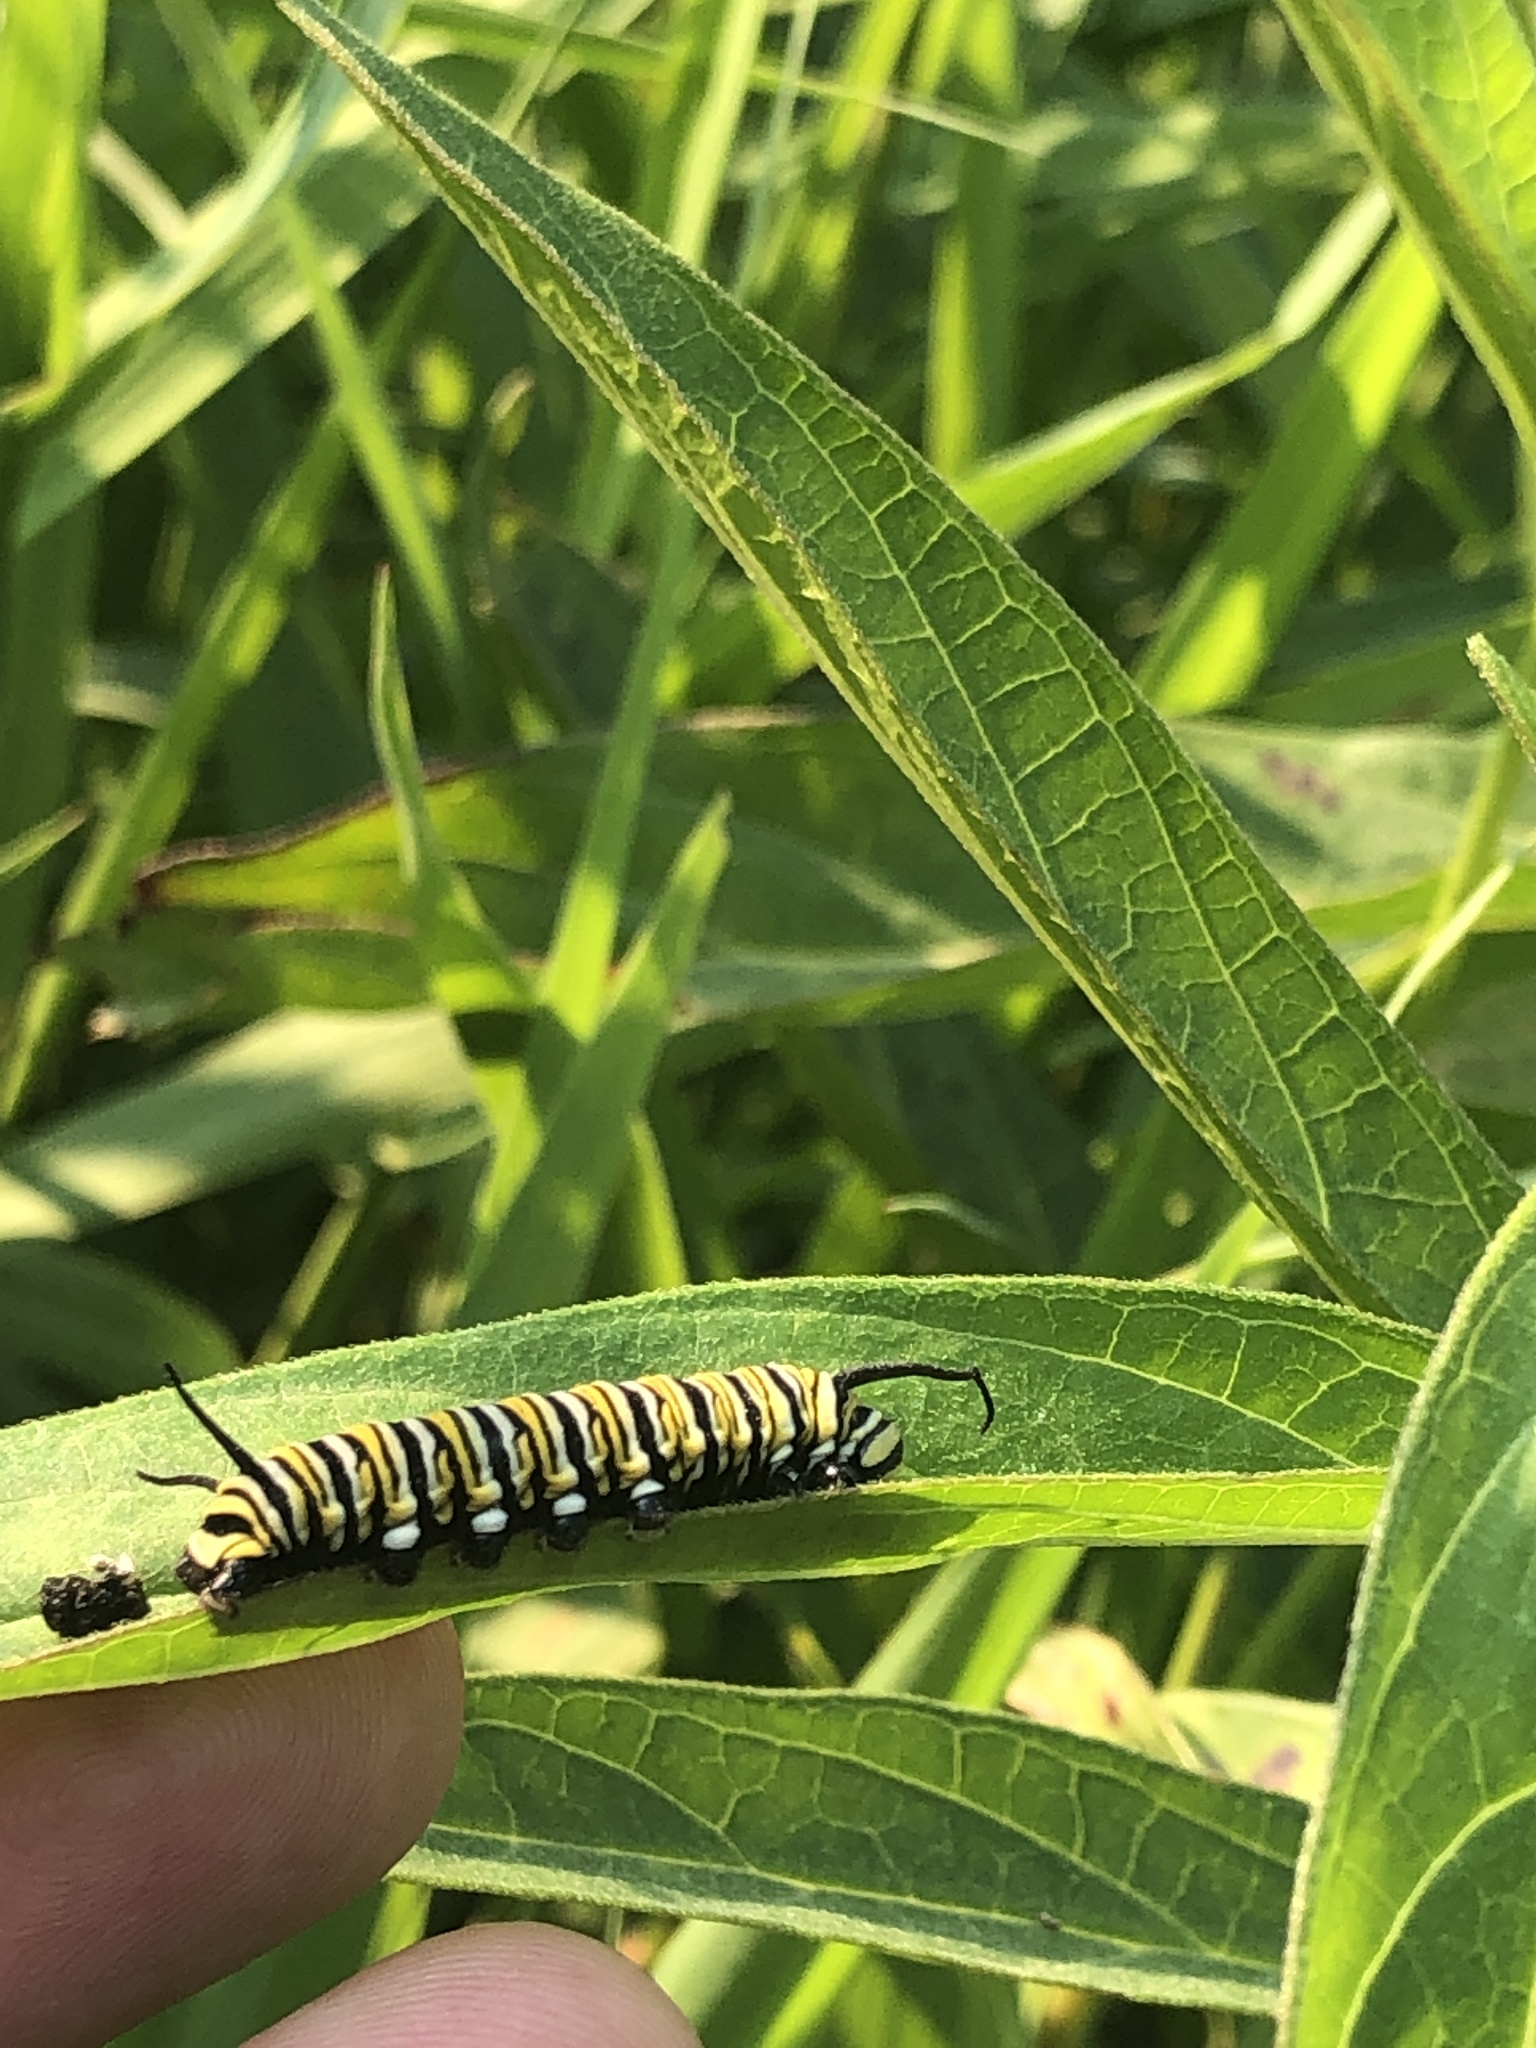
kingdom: Animalia
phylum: Arthropoda
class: Insecta
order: Lepidoptera
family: Nymphalidae
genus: Danaus
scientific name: Danaus plexippus
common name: Monarch
